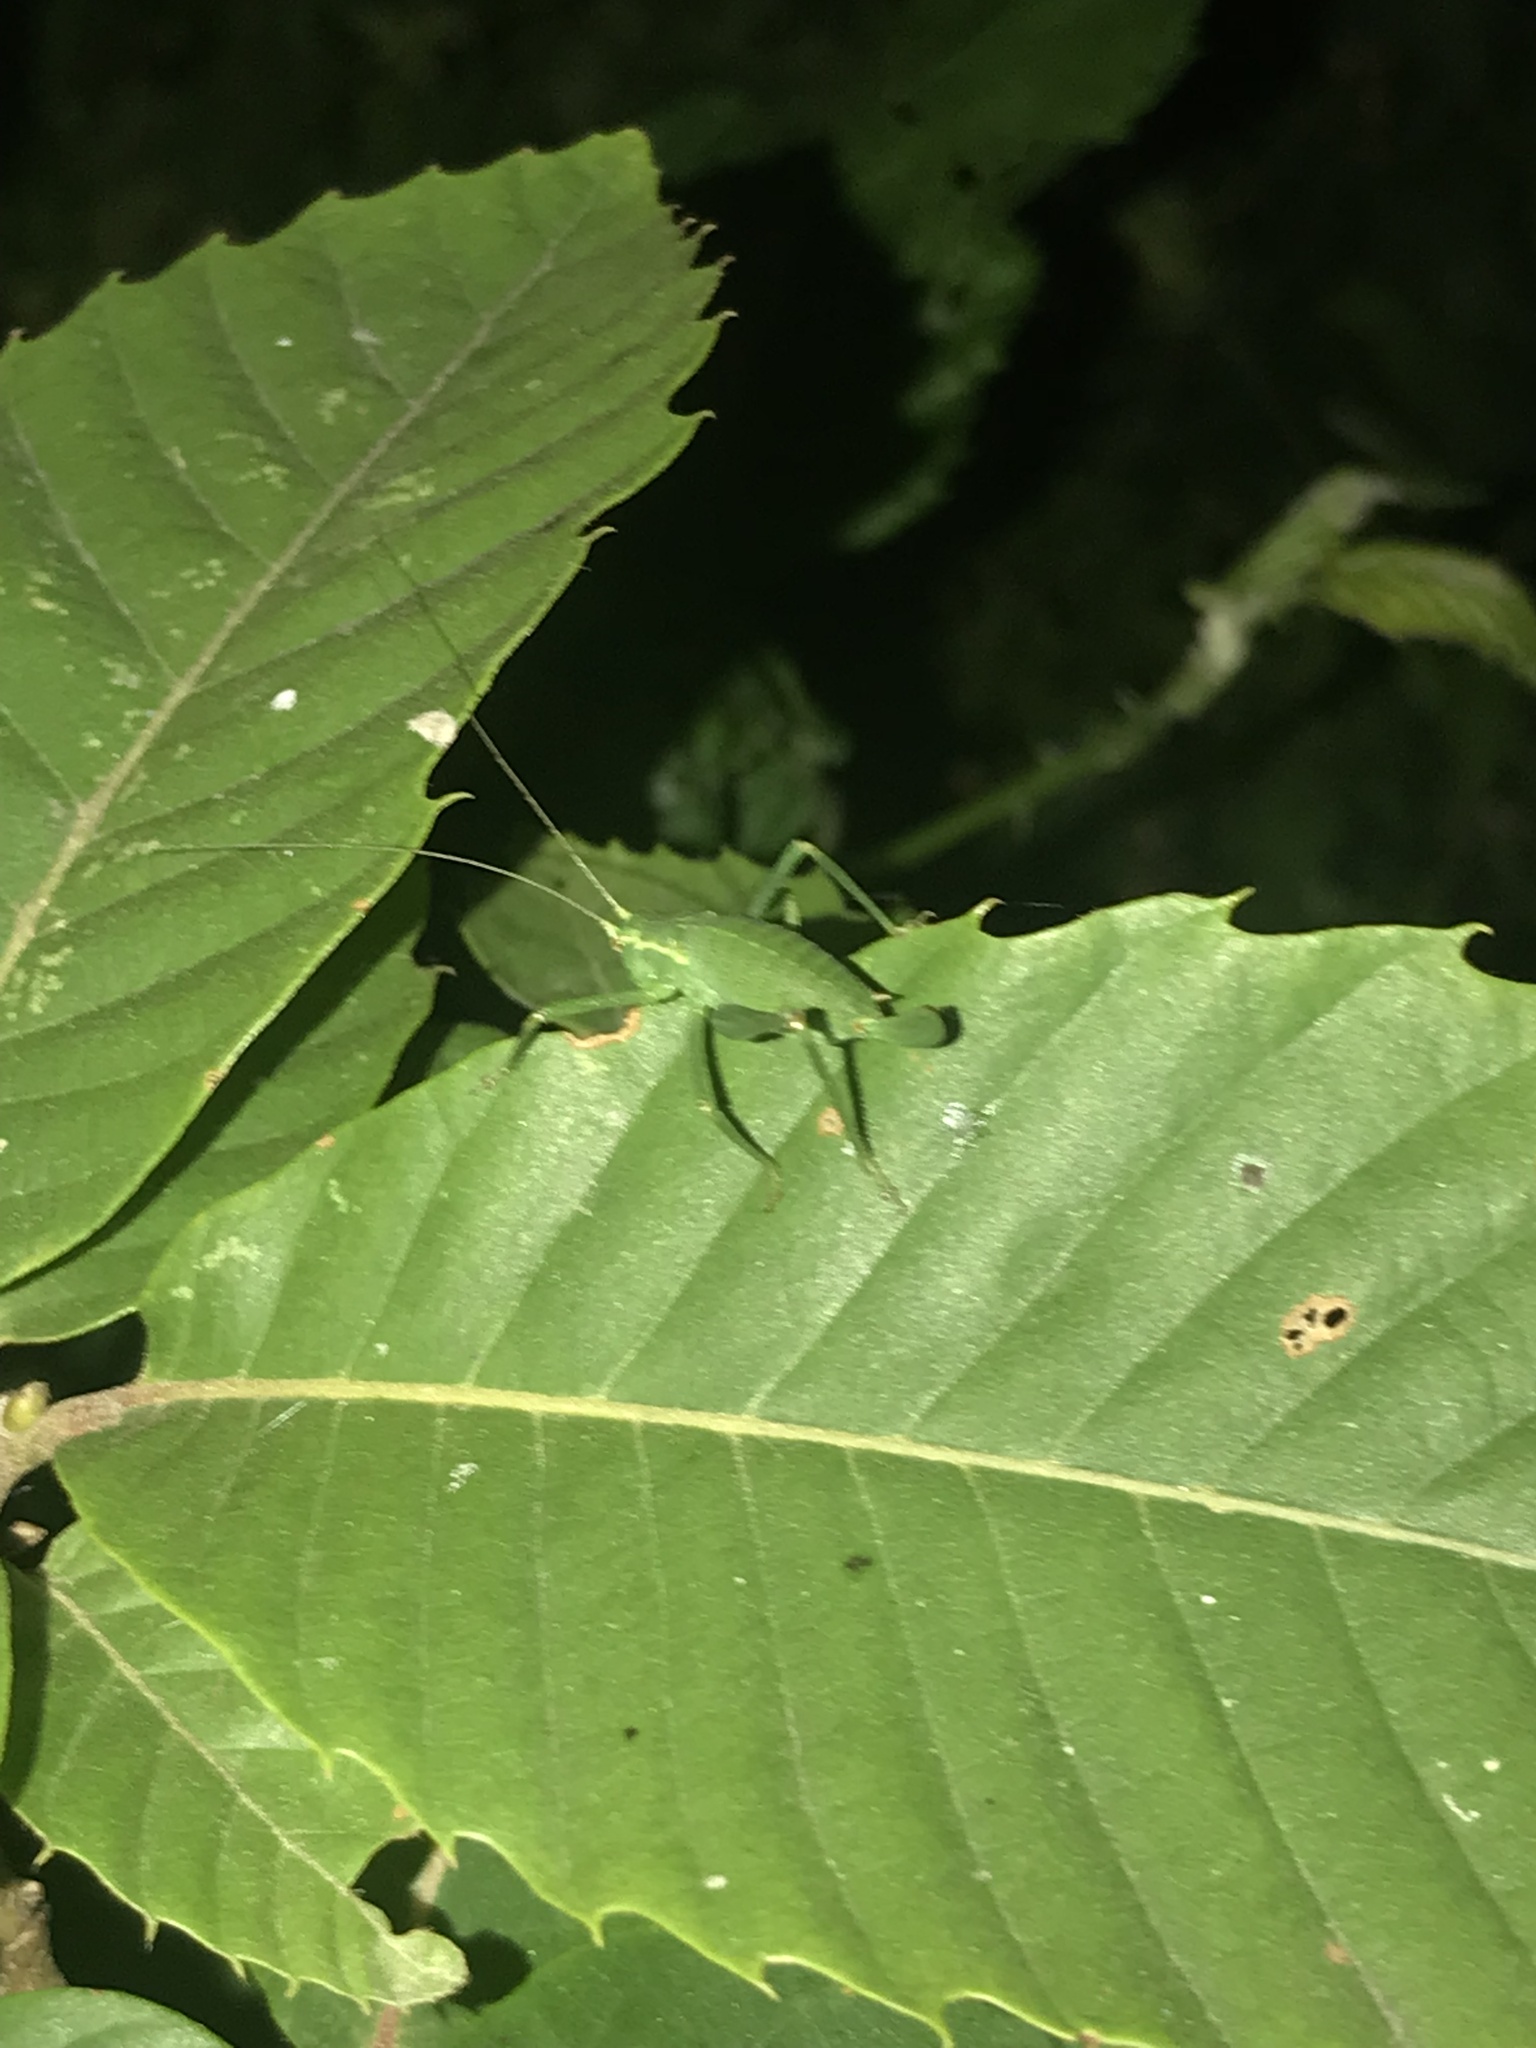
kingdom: Animalia
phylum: Arthropoda
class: Insecta
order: Orthoptera
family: Tettigoniidae
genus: Leptophyes
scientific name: Leptophyes punctatissima
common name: Speckled bush-cricket
